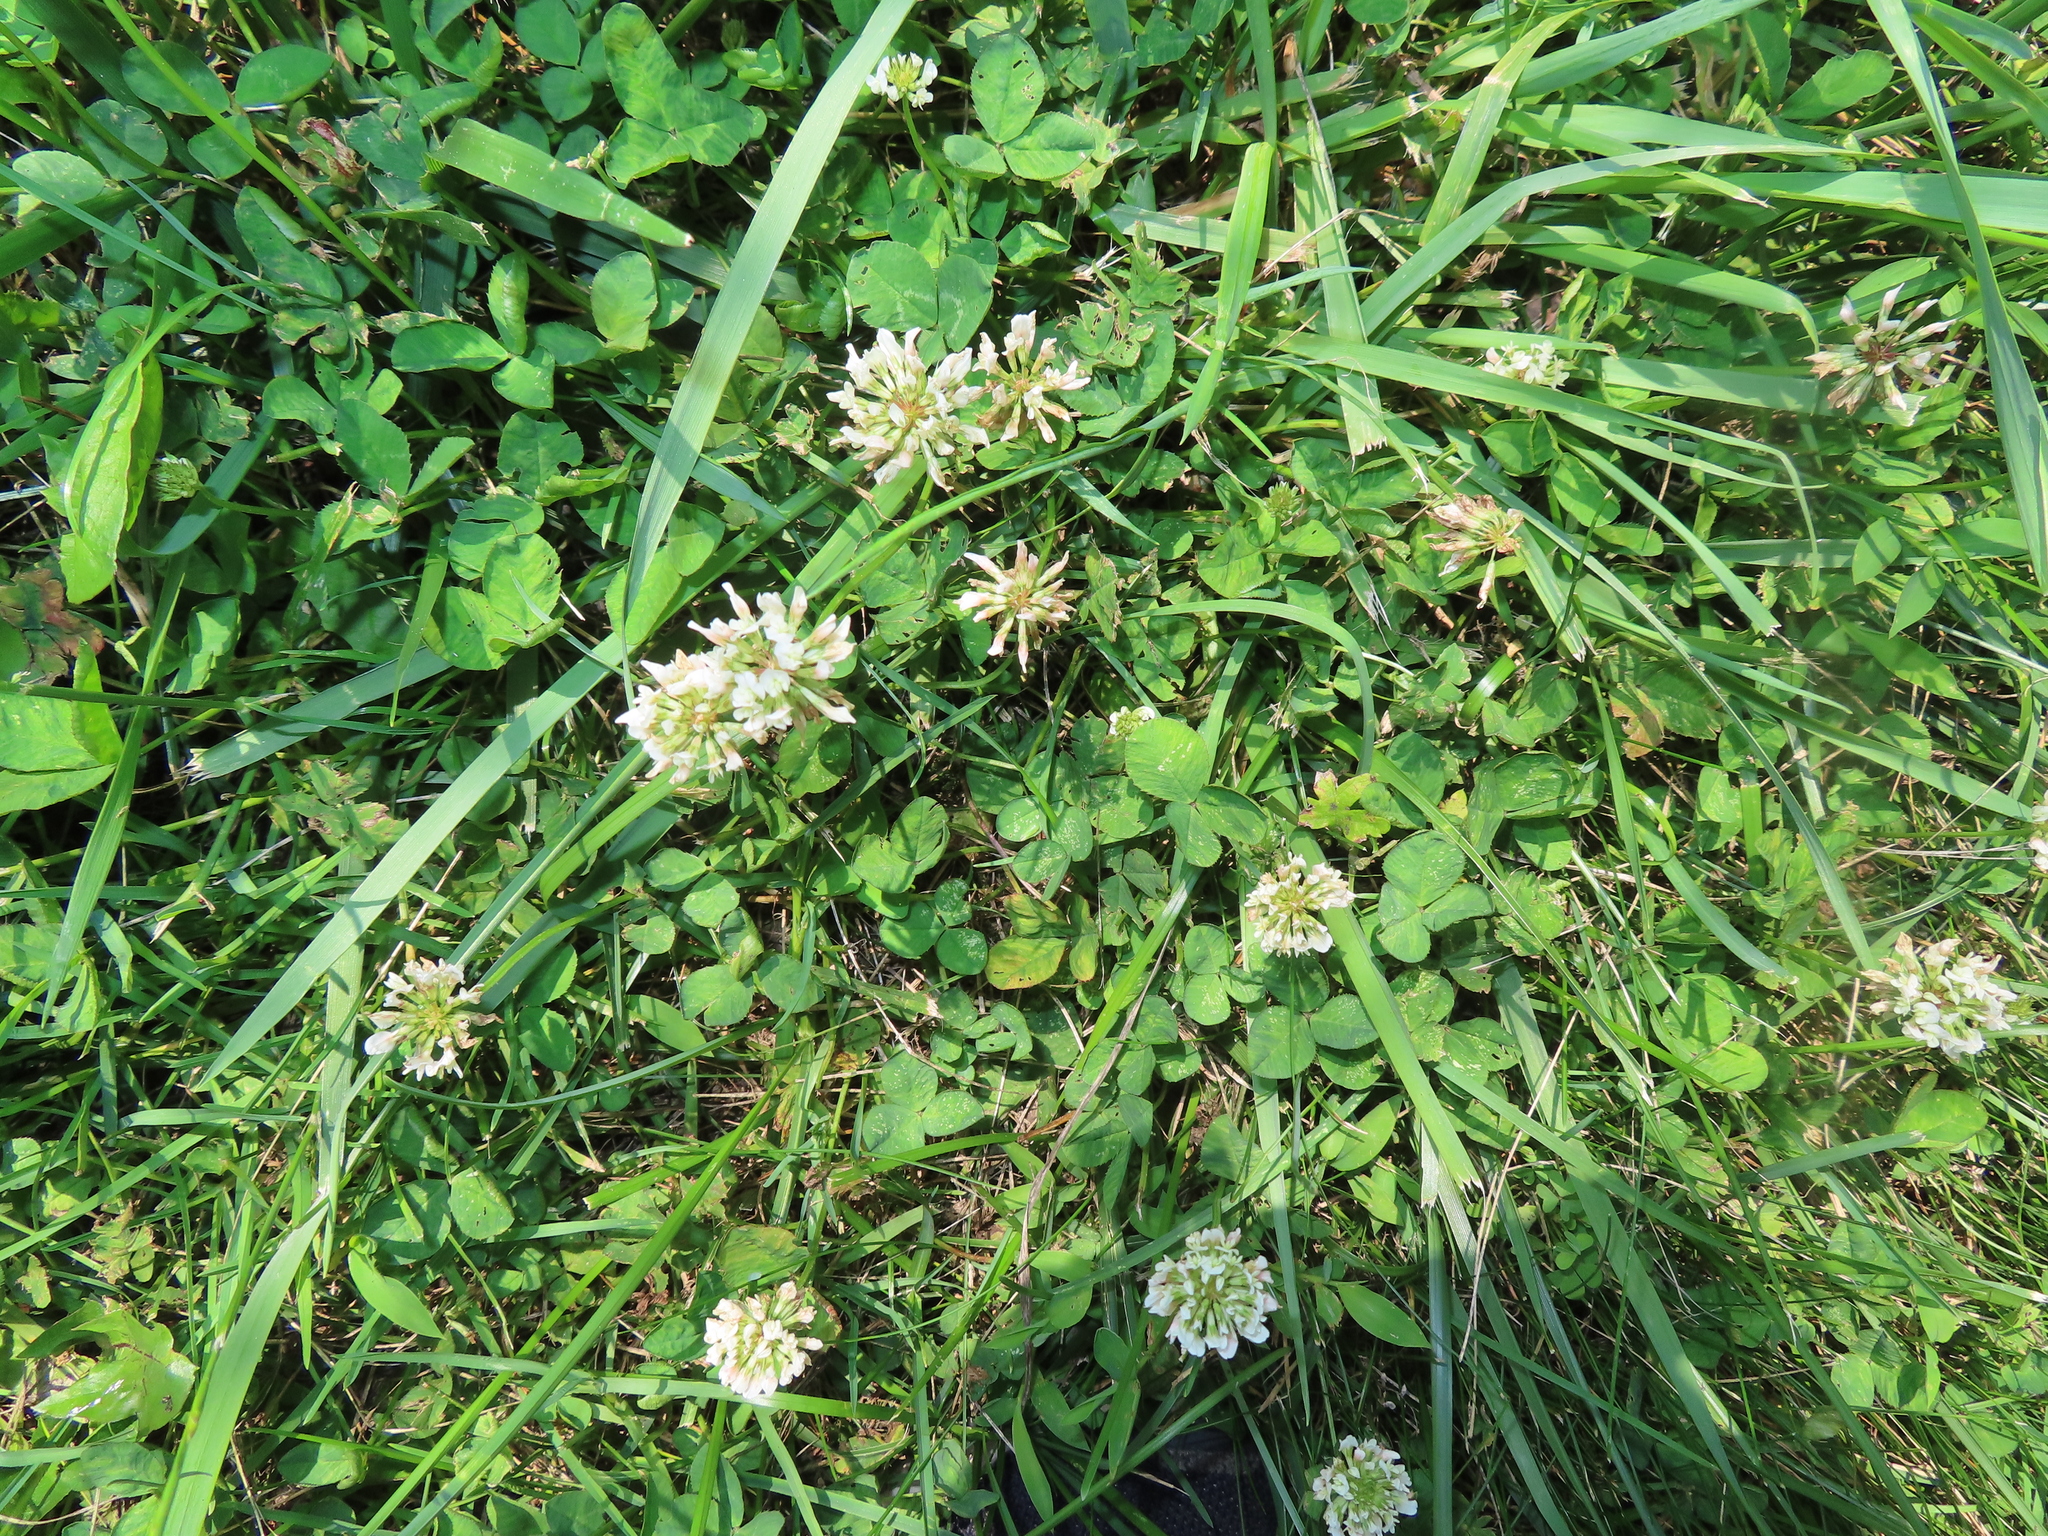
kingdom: Plantae
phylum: Tracheophyta
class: Magnoliopsida
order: Fabales
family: Fabaceae
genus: Trifolium
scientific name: Trifolium repens
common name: White clover
